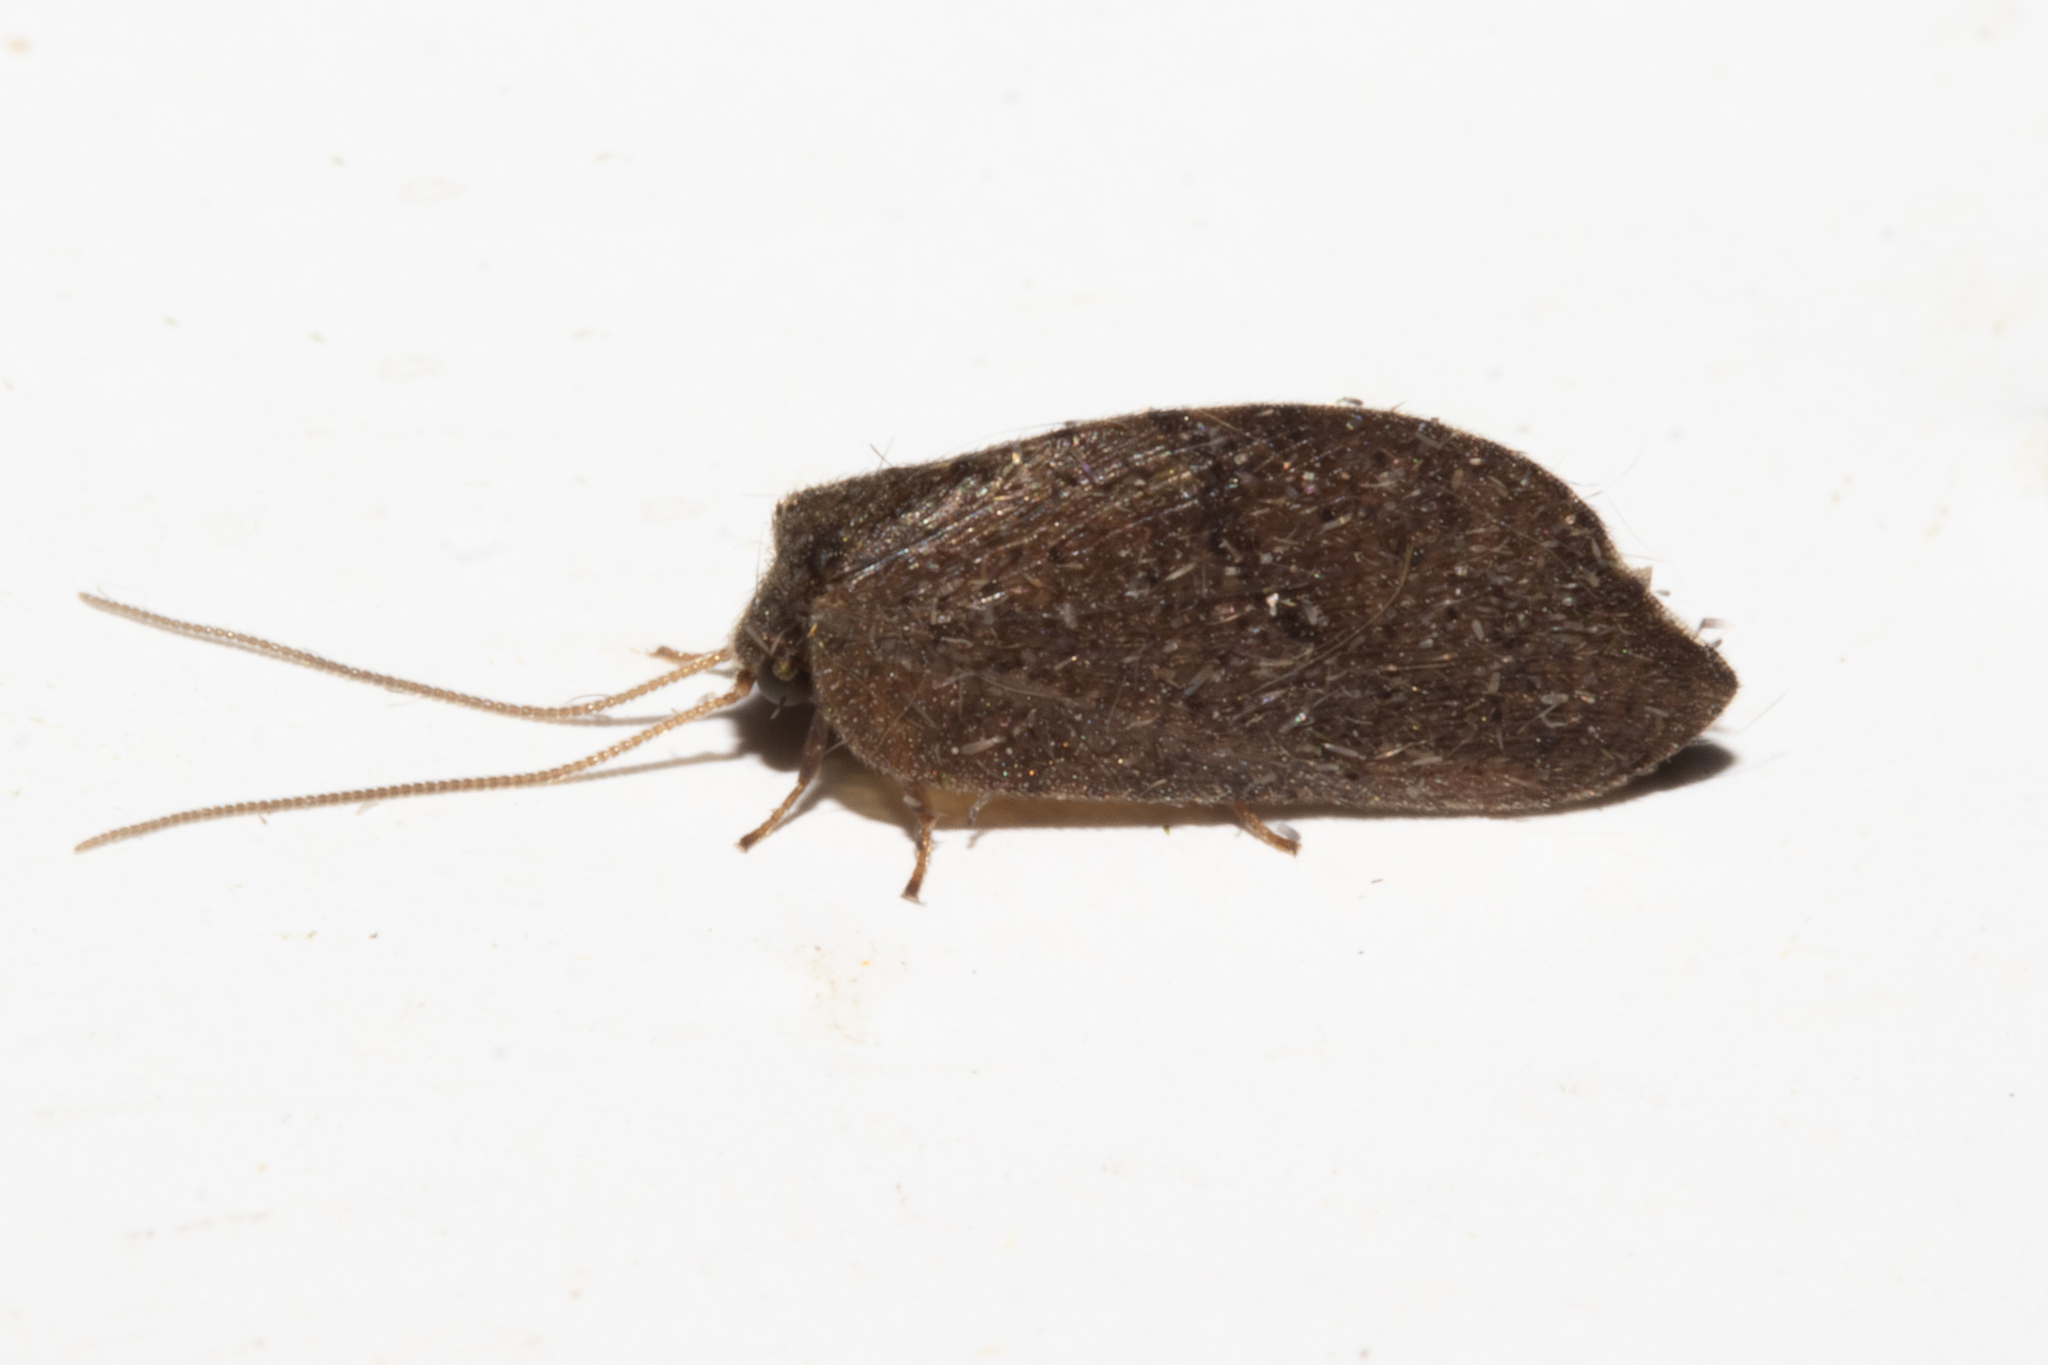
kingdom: Animalia
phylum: Arthropoda
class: Insecta
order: Neuroptera
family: Hemerobiidae
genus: Drepanacra
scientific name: Drepanacra binocula
